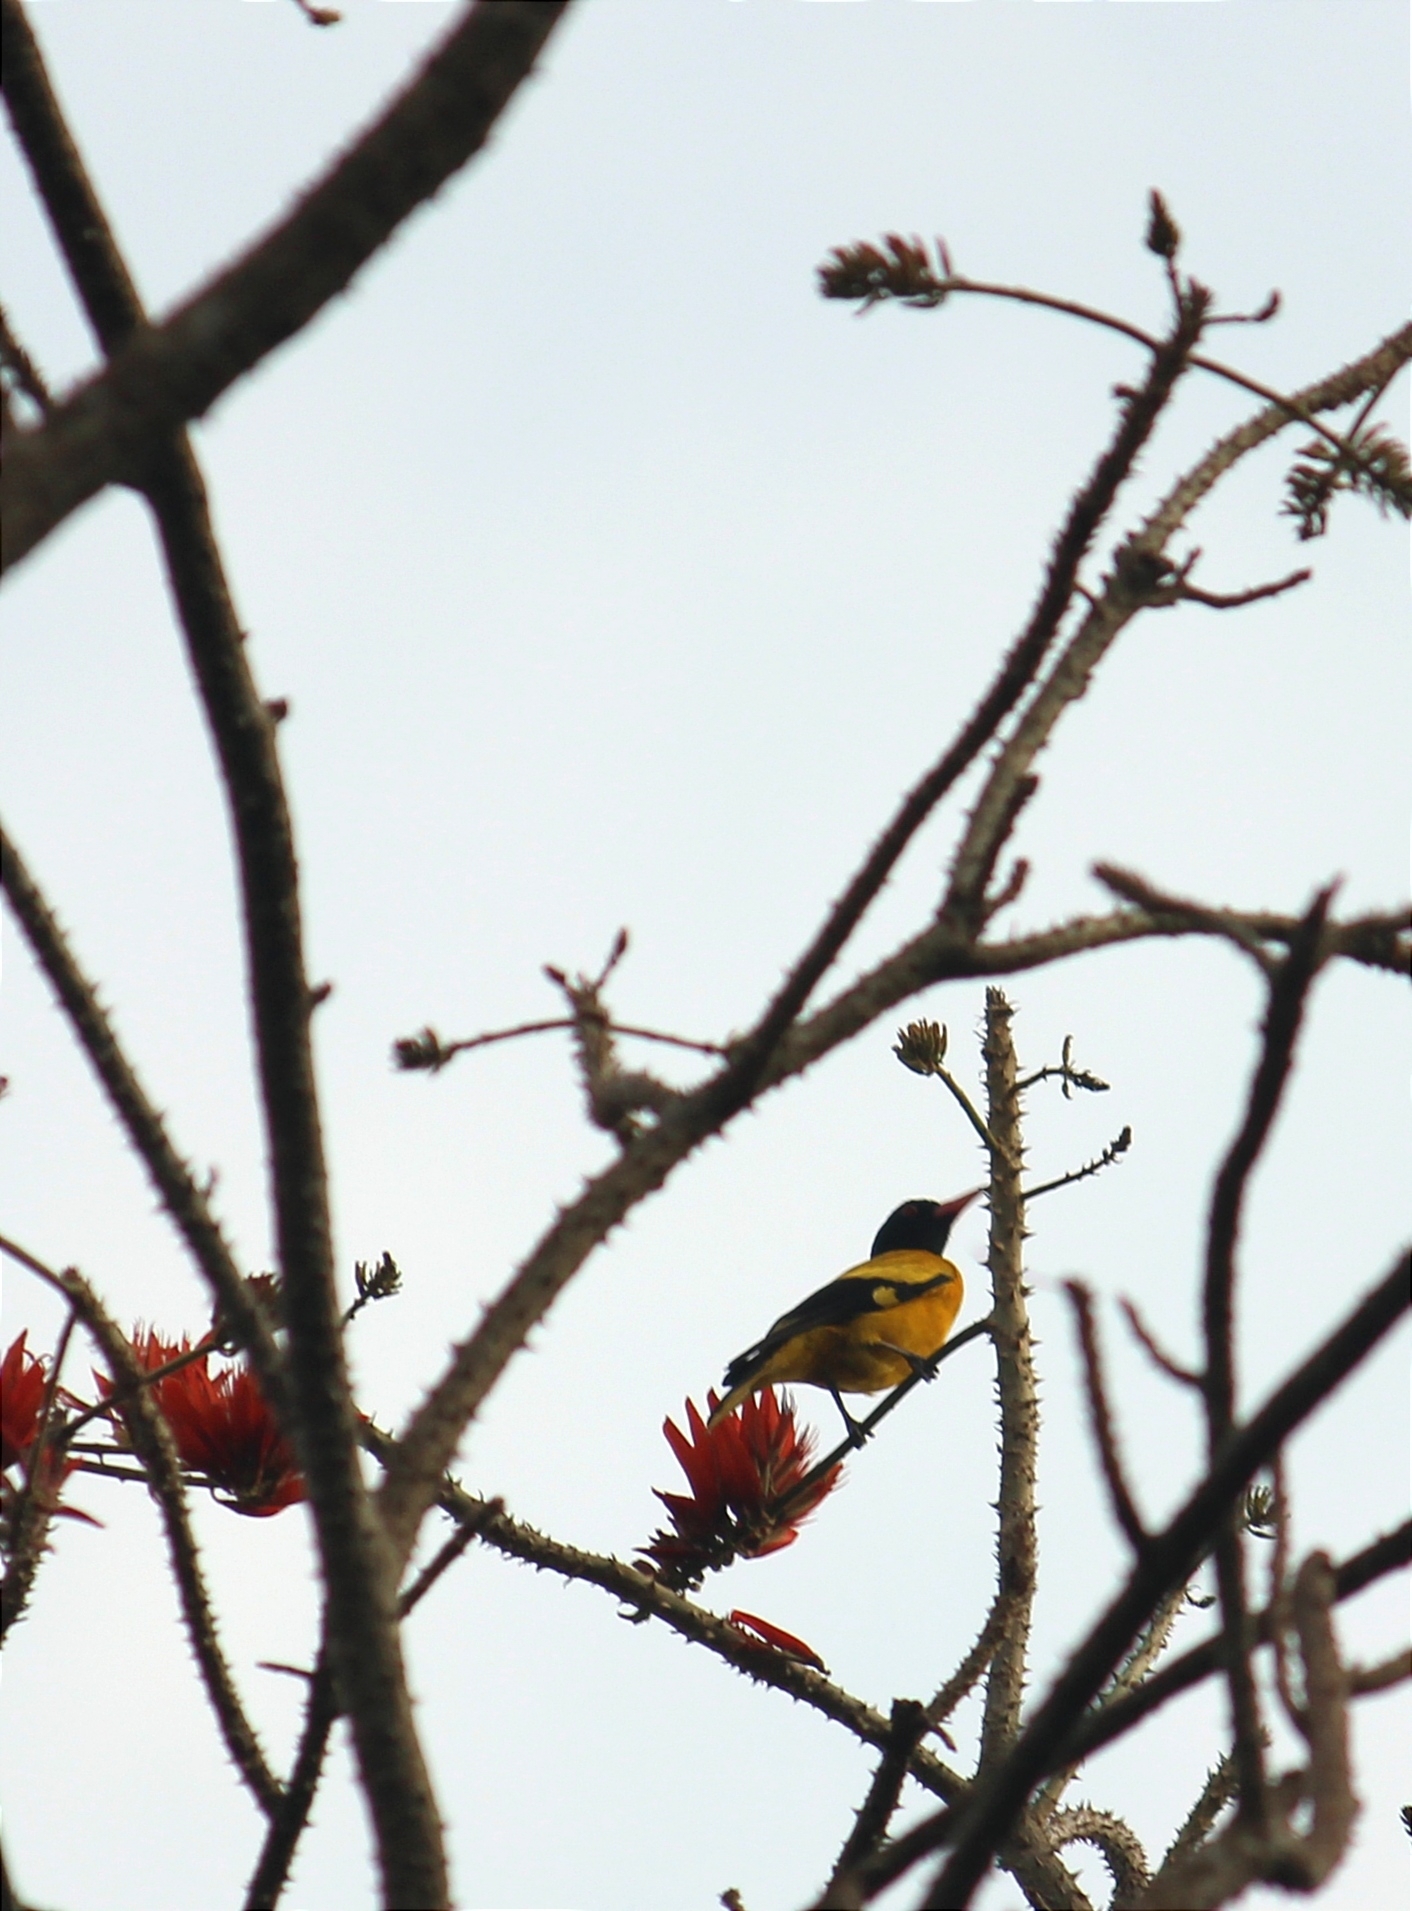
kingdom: Animalia
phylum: Chordata
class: Aves
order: Passeriformes
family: Oriolidae
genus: Oriolus
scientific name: Oriolus xanthornus
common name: Black-hooded oriole
